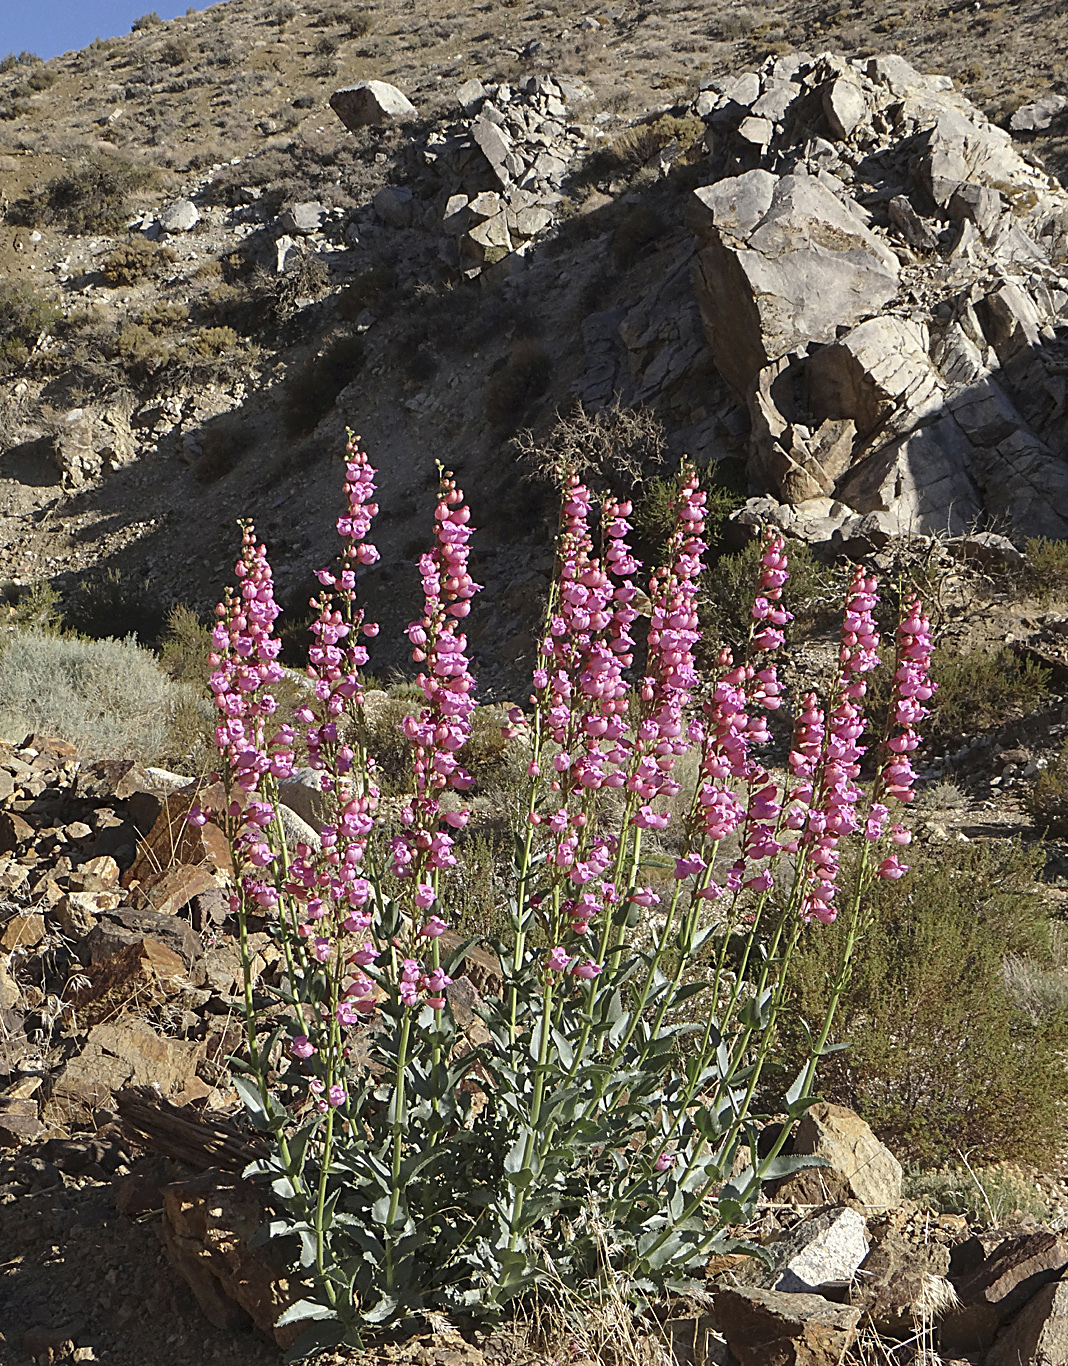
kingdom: Plantae
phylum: Tracheophyta
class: Magnoliopsida
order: Lamiales
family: Plantaginaceae
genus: Penstemon
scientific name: Penstemon floridus
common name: Panamint penstemon
